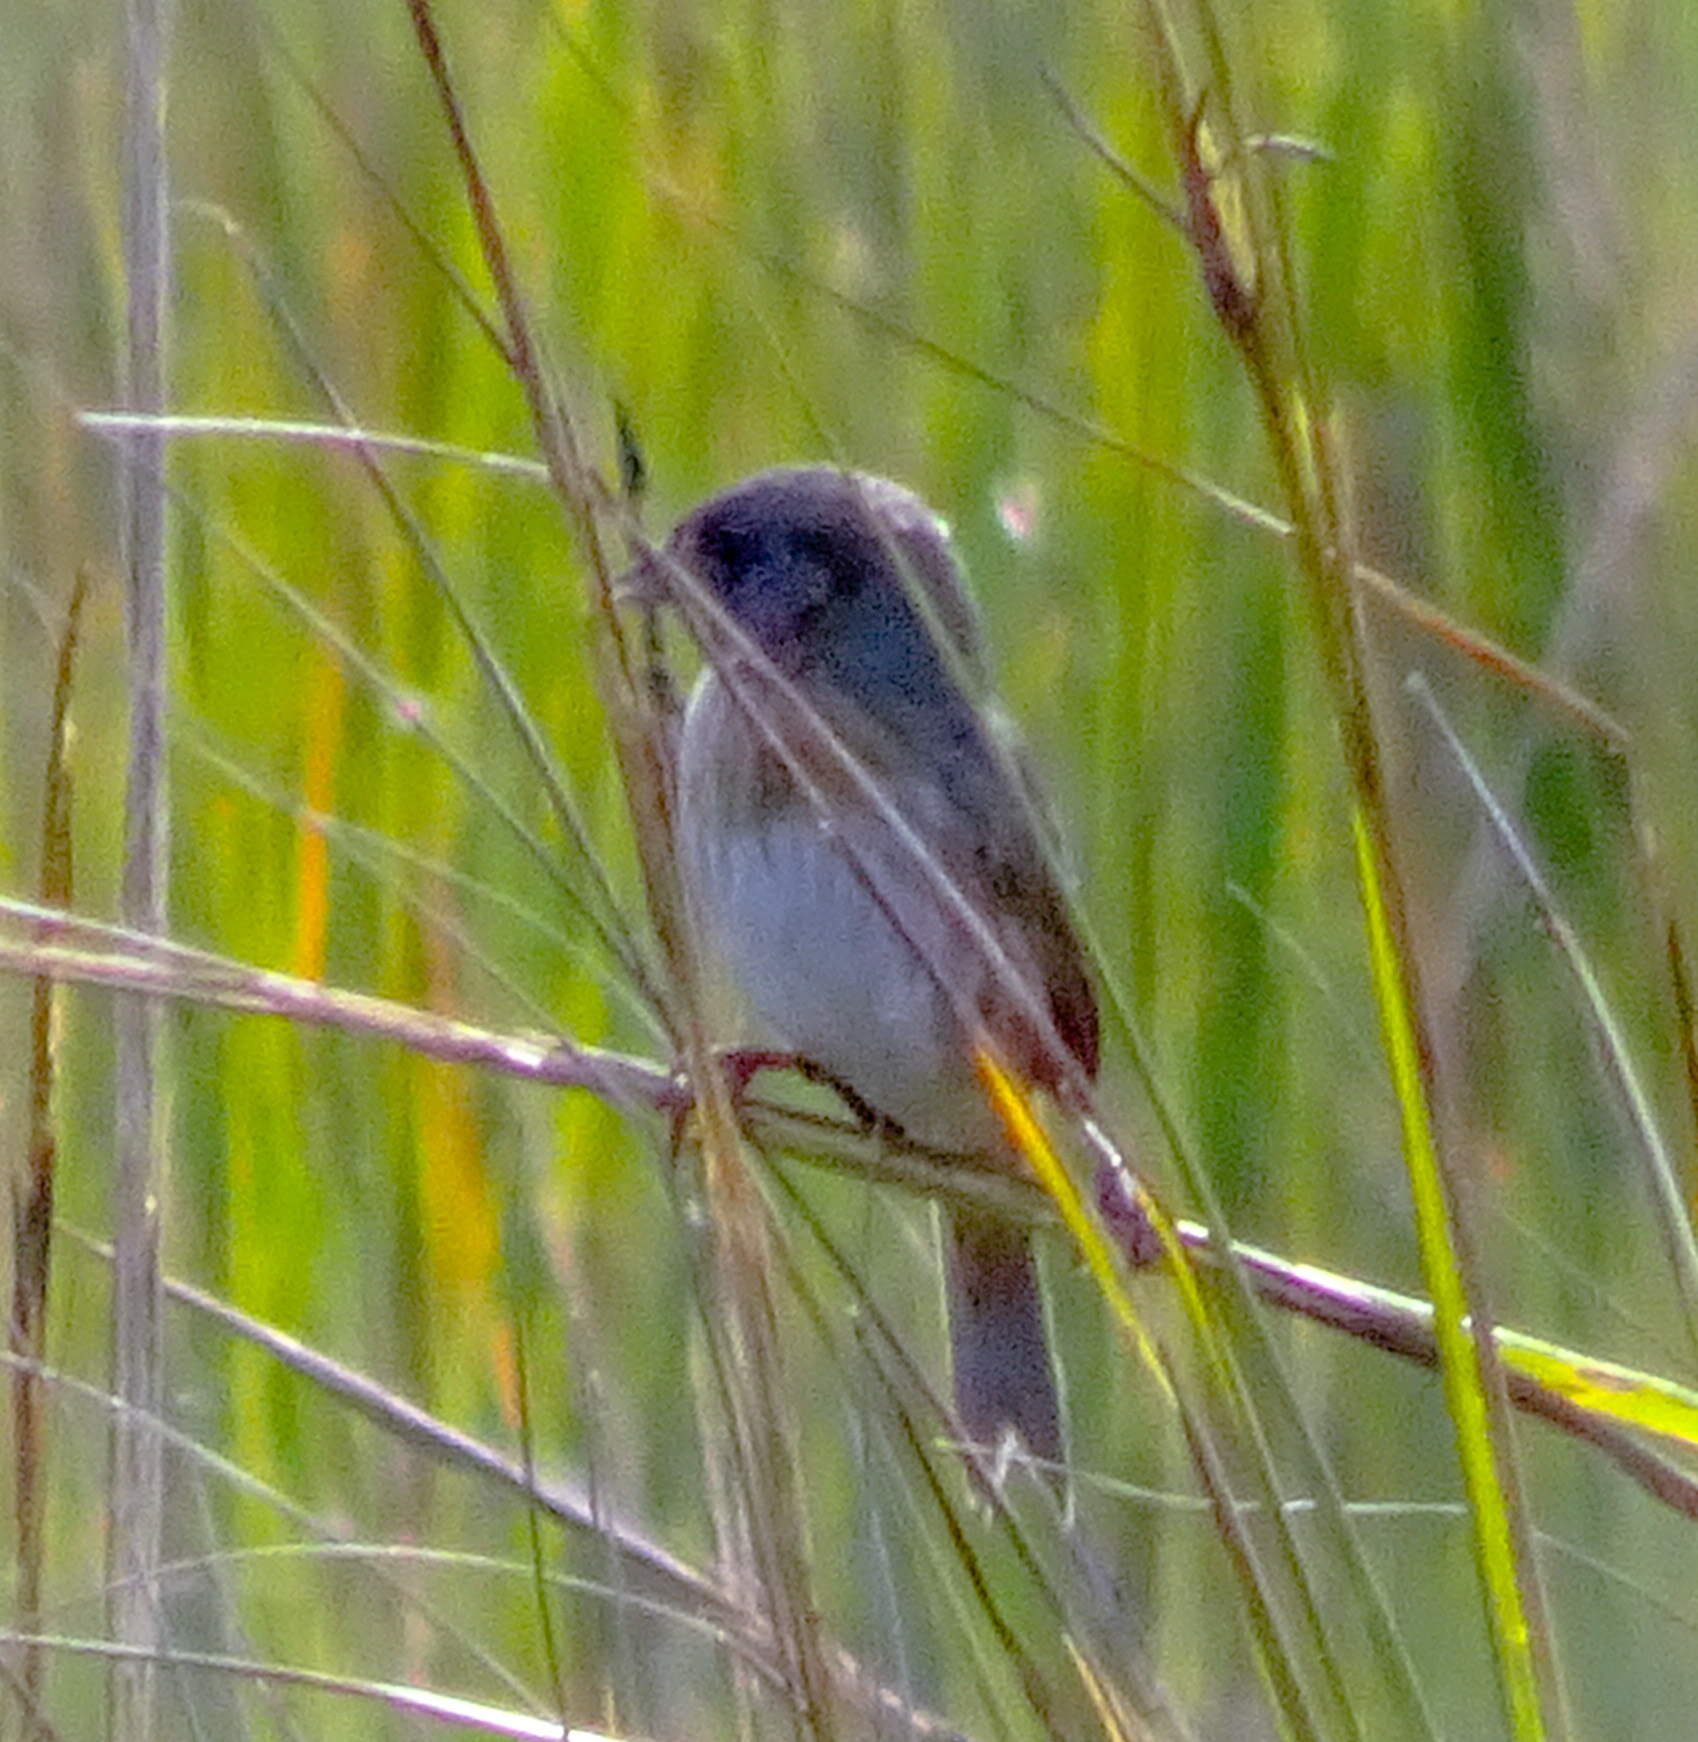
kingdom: Animalia
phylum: Chordata
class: Aves
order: Passeriformes
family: Passerellidae
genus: Ammospiza
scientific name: Ammospiza caudacuta
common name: Saltmarsh sparrow
